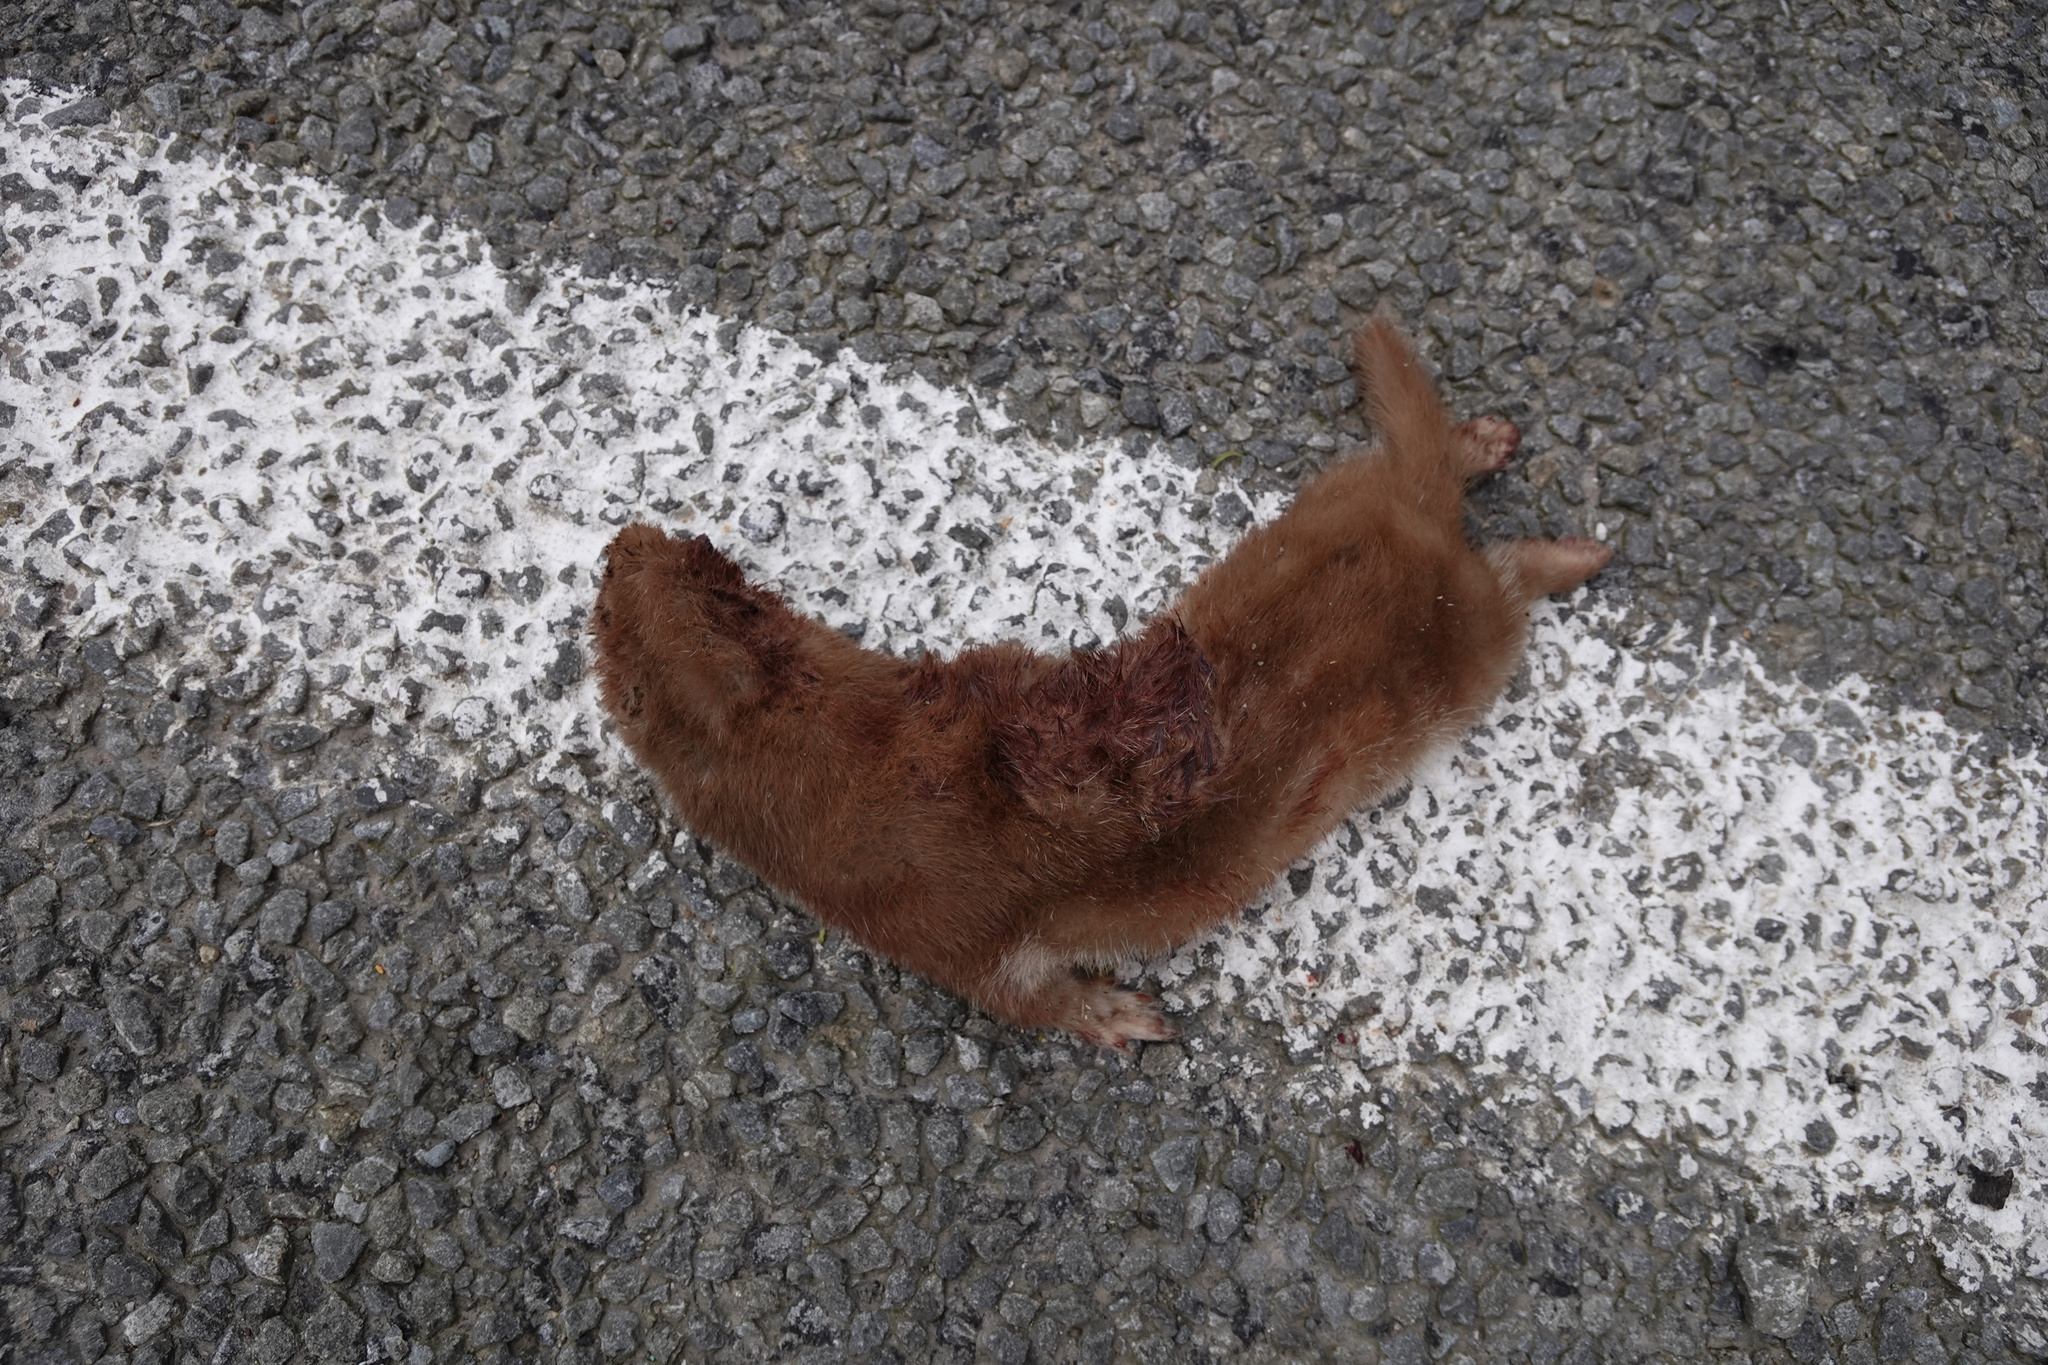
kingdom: Animalia
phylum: Chordata
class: Mammalia
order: Carnivora
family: Mustelidae
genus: Mustela
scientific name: Mustela nivalis
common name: Least weasel
